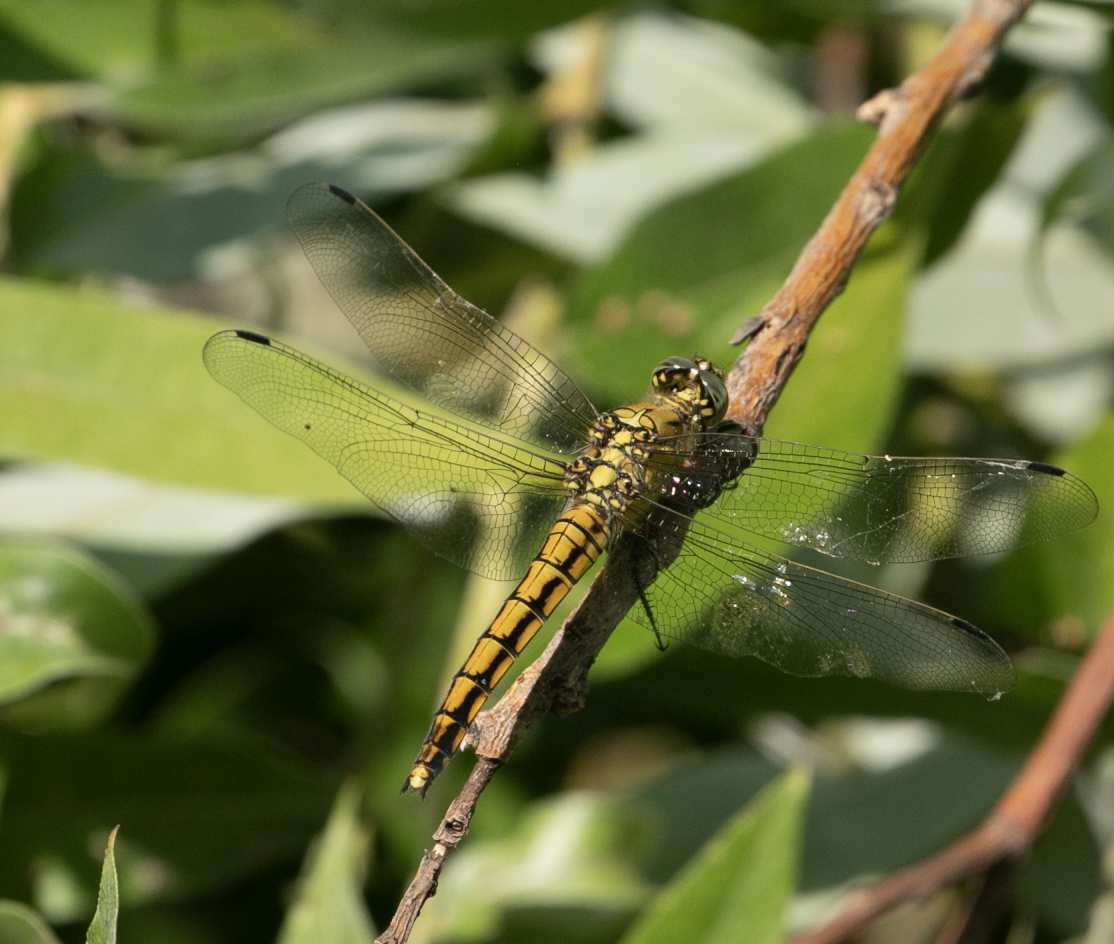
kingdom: Animalia
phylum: Arthropoda
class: Insecta
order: Odonata
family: Libellulidae
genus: Orthetrum
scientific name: Orthetrum cancellatum
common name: Black-tailed skimmer
